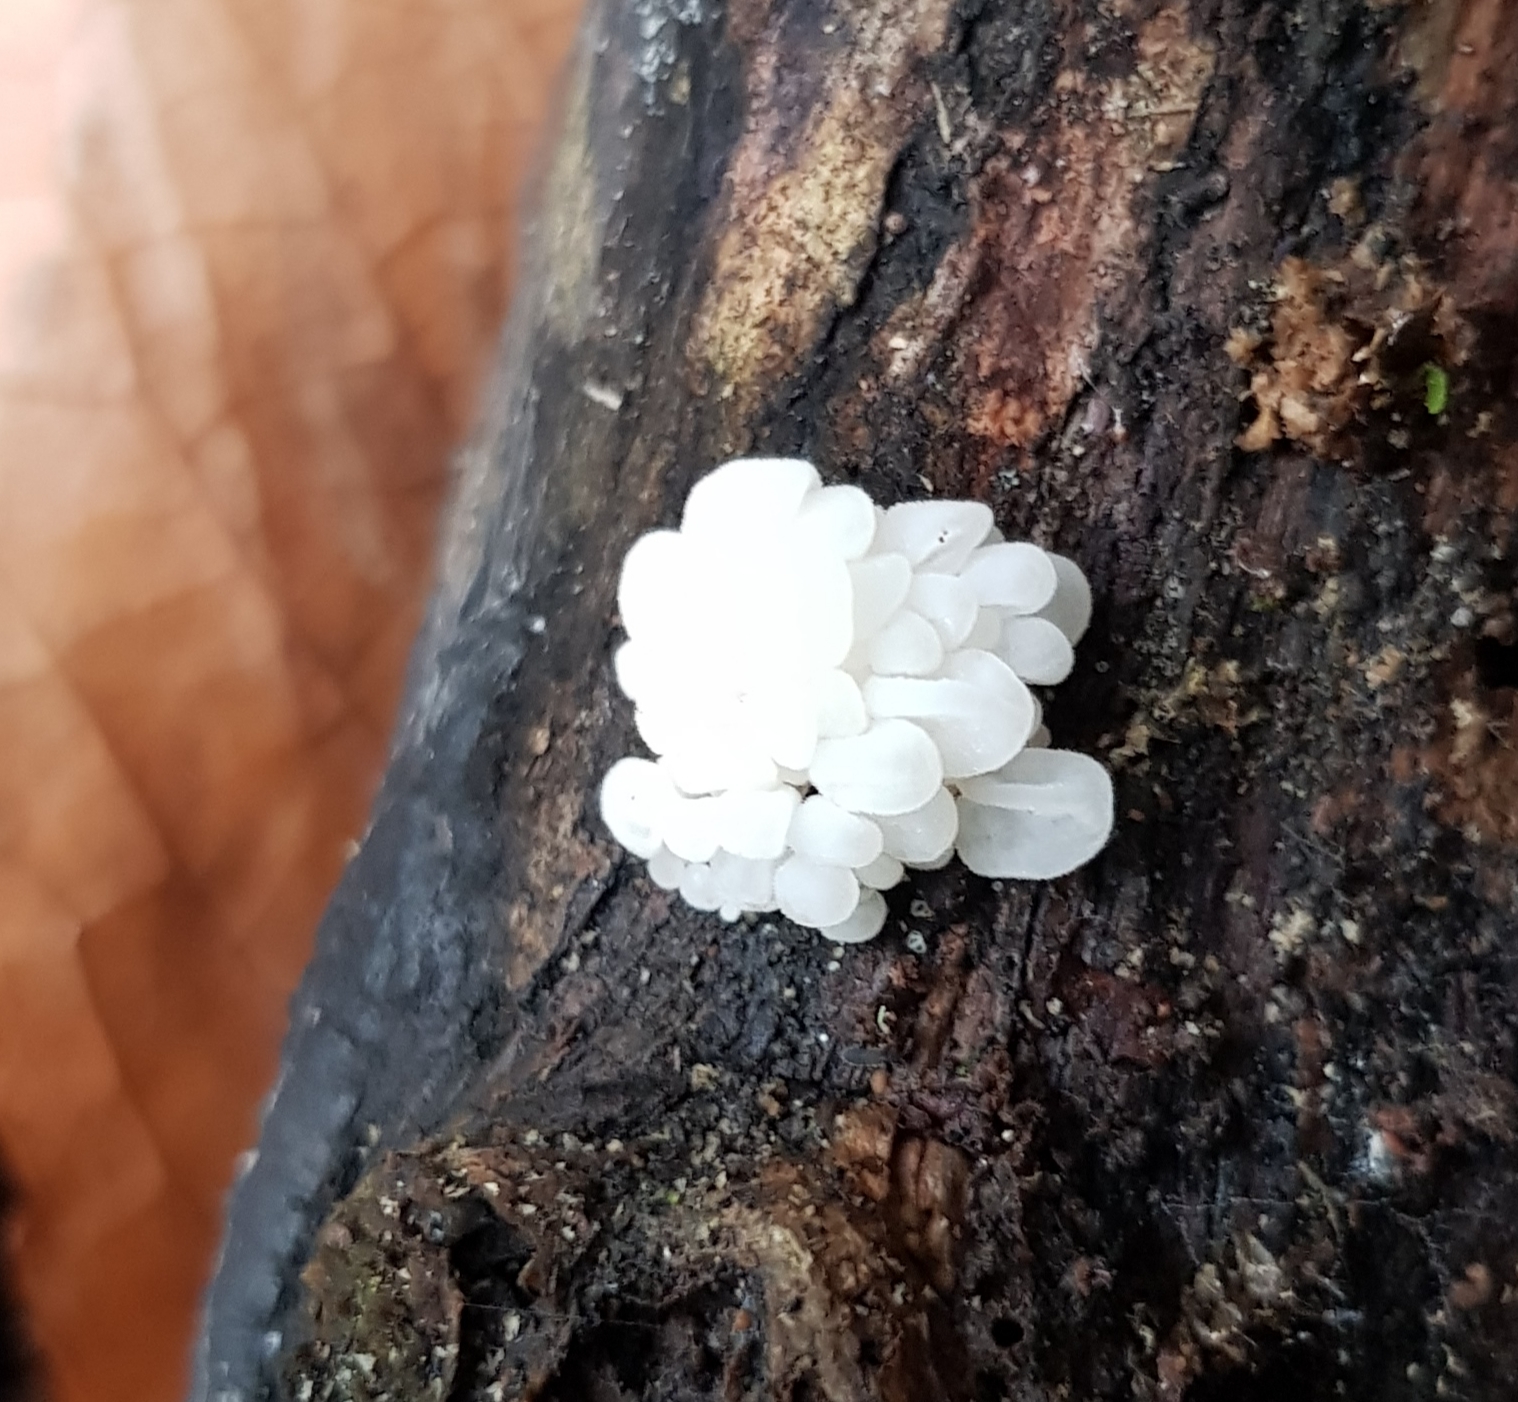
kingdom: Fungi
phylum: Basidiomycota
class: Agaricomycetes
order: Agaricales
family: Physalacriaceae
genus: Physalacria
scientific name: Physalacria pseudotropica
